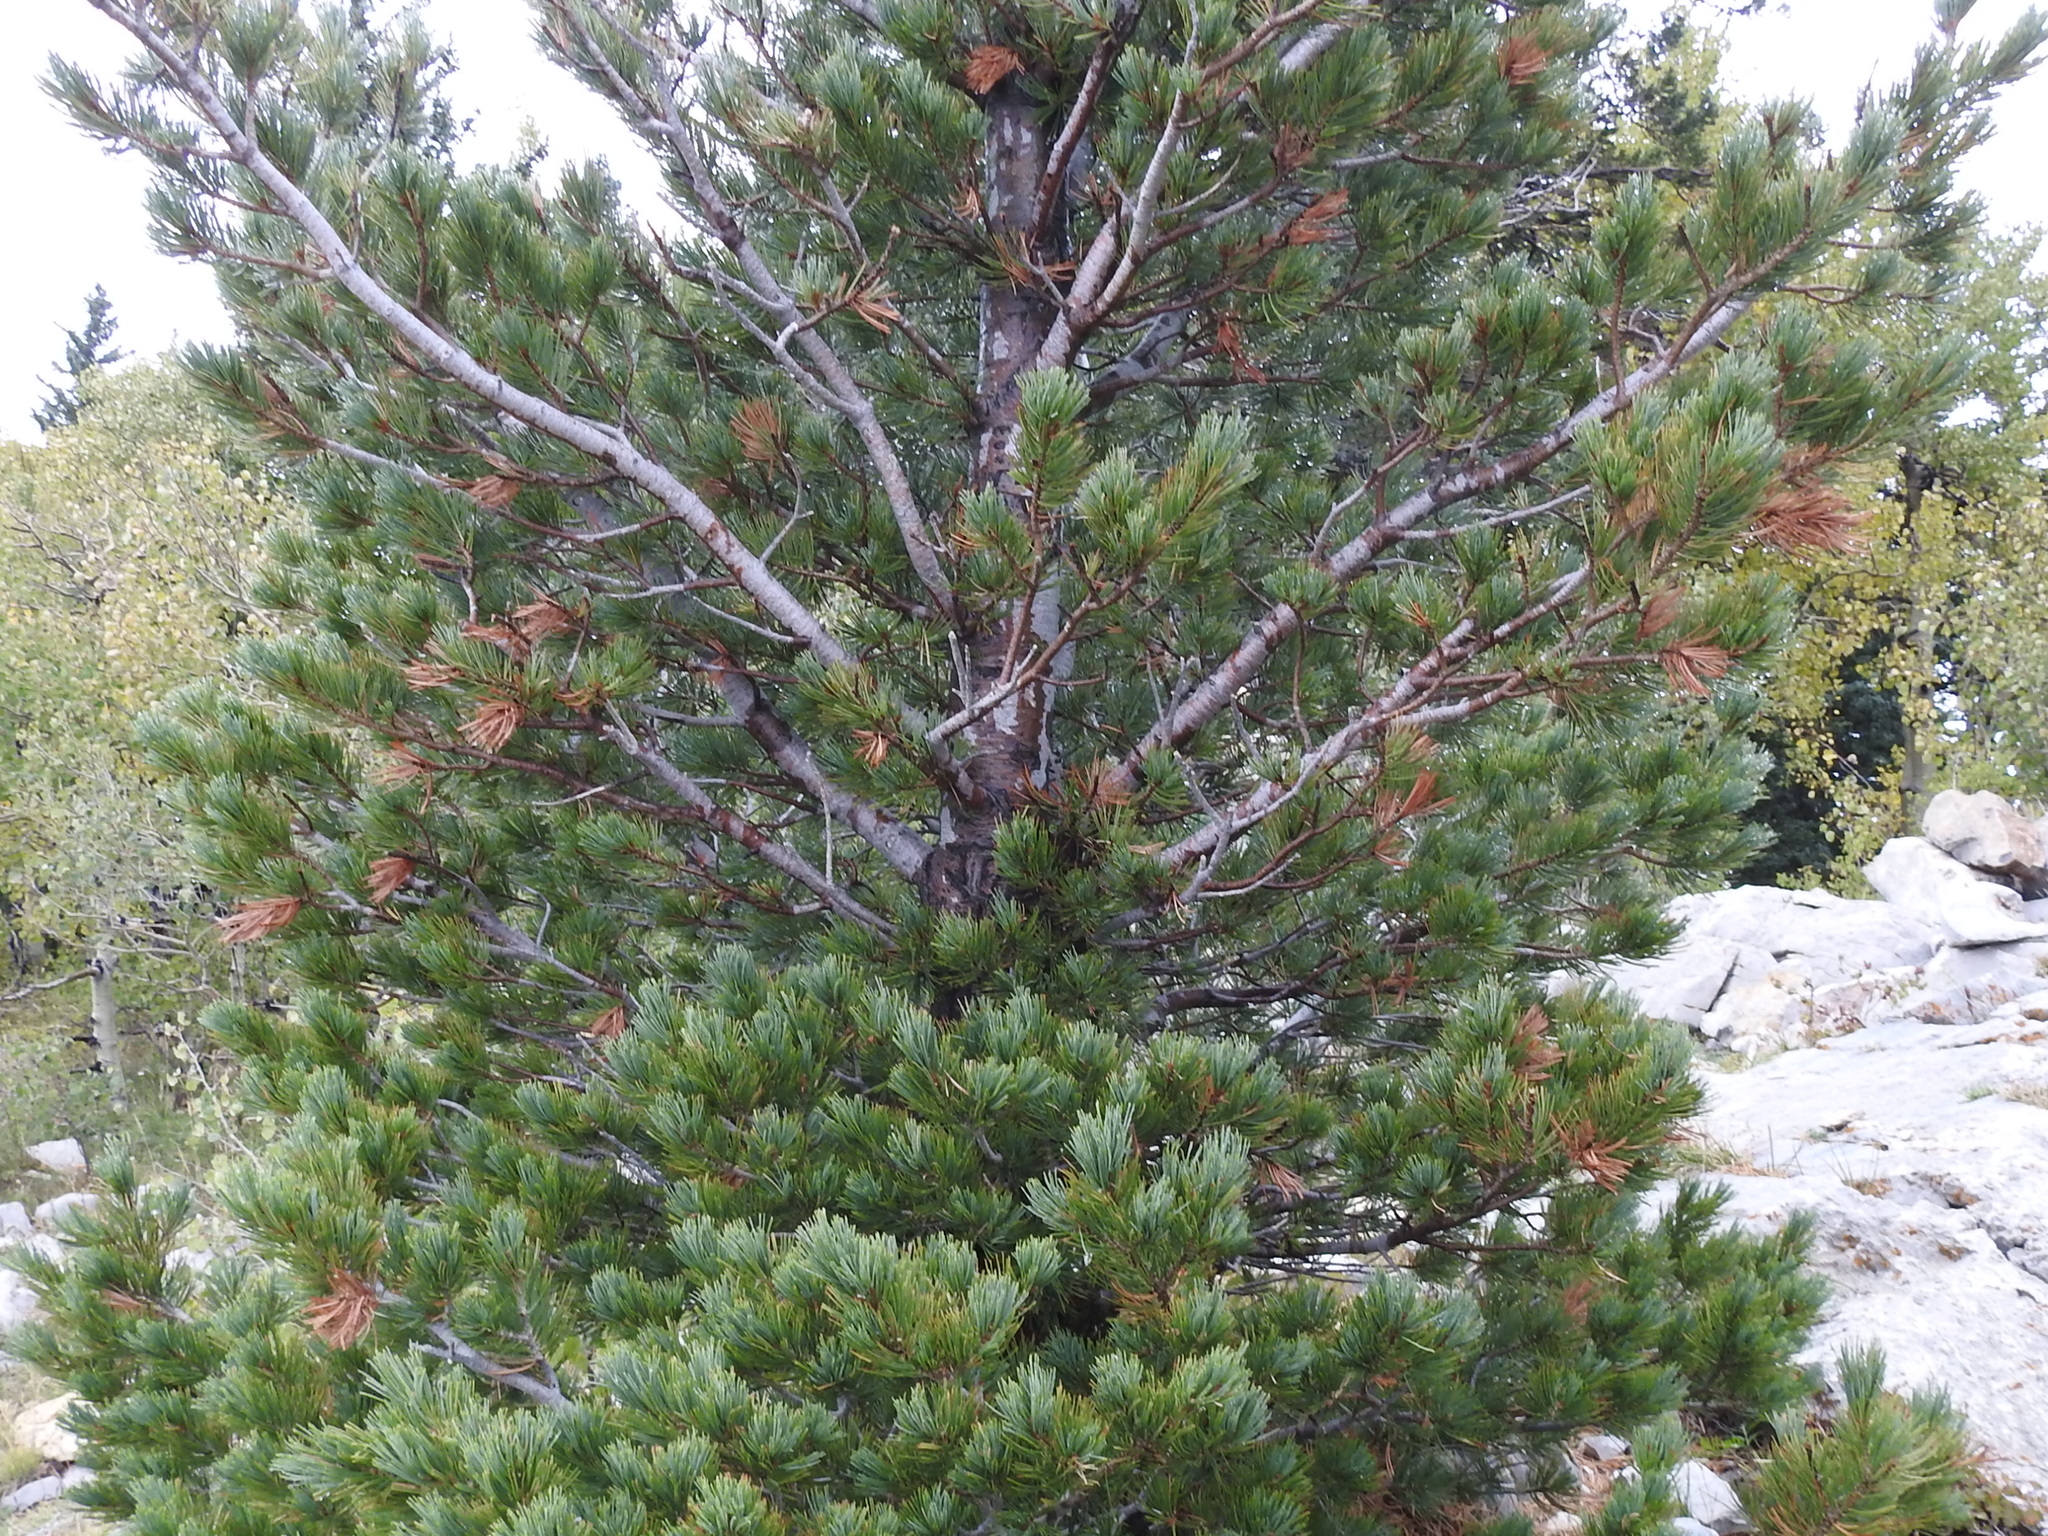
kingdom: Plantae
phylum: Tracheophyta
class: Pinopsida
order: Pinales
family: Pinaceae
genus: Pinus
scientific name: Pinus flexilis
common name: Limber pine
